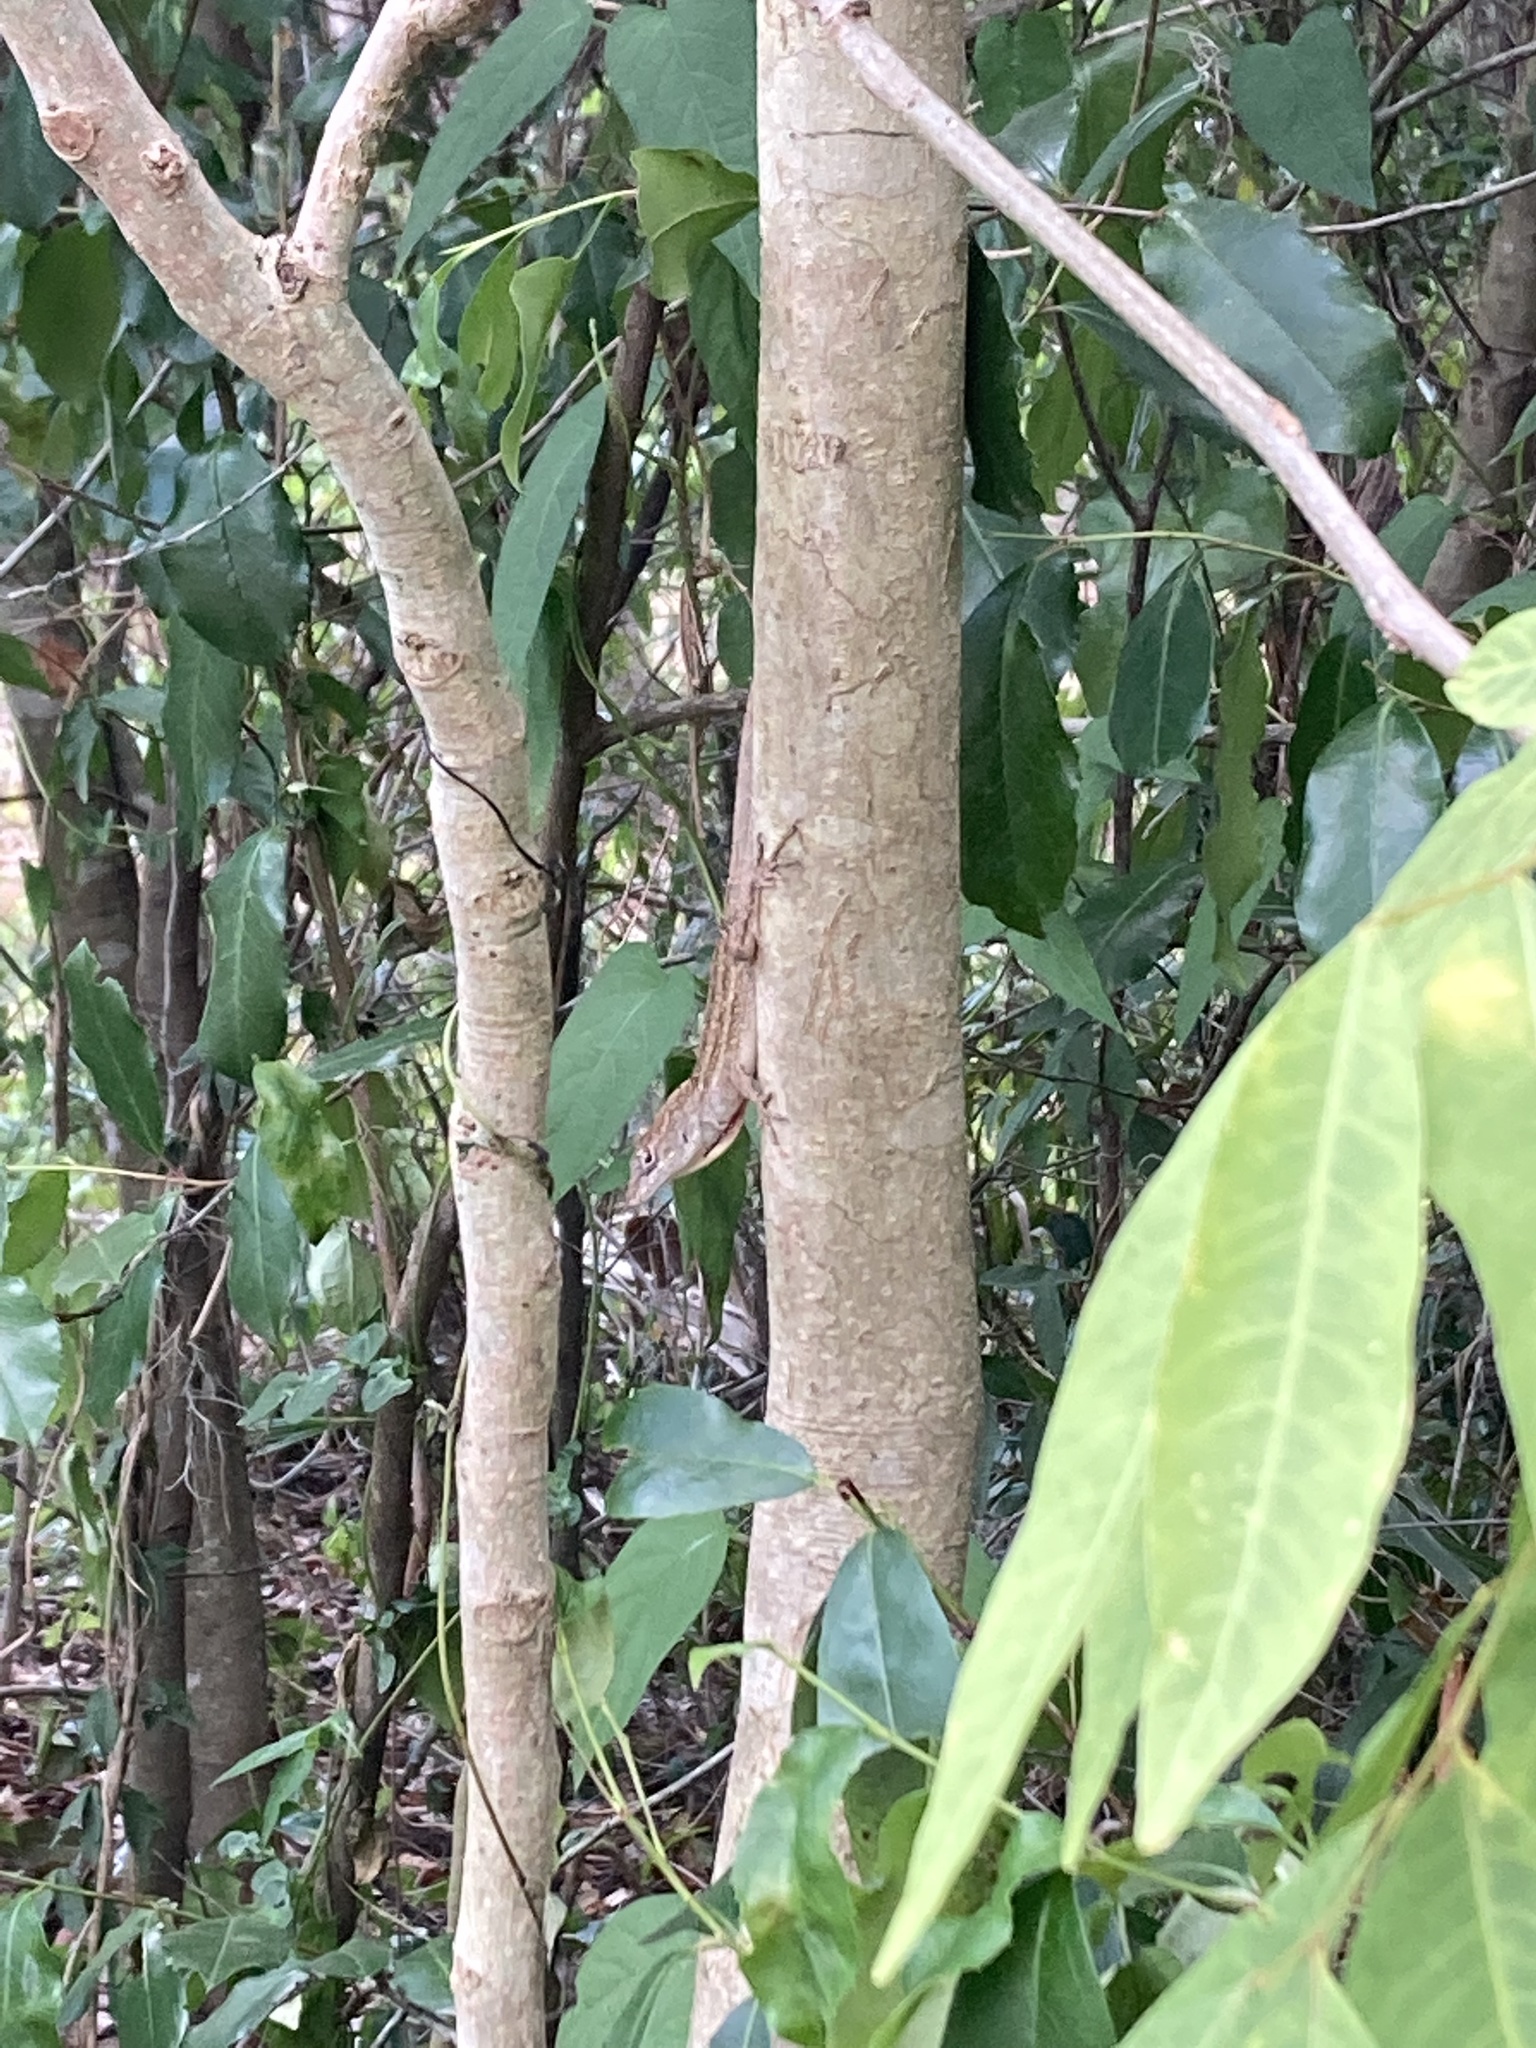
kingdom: Animalia
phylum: Chordata
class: Squamata
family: Dactyloidae
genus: Anolis
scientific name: Anolis sagrei
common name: Brown anole
